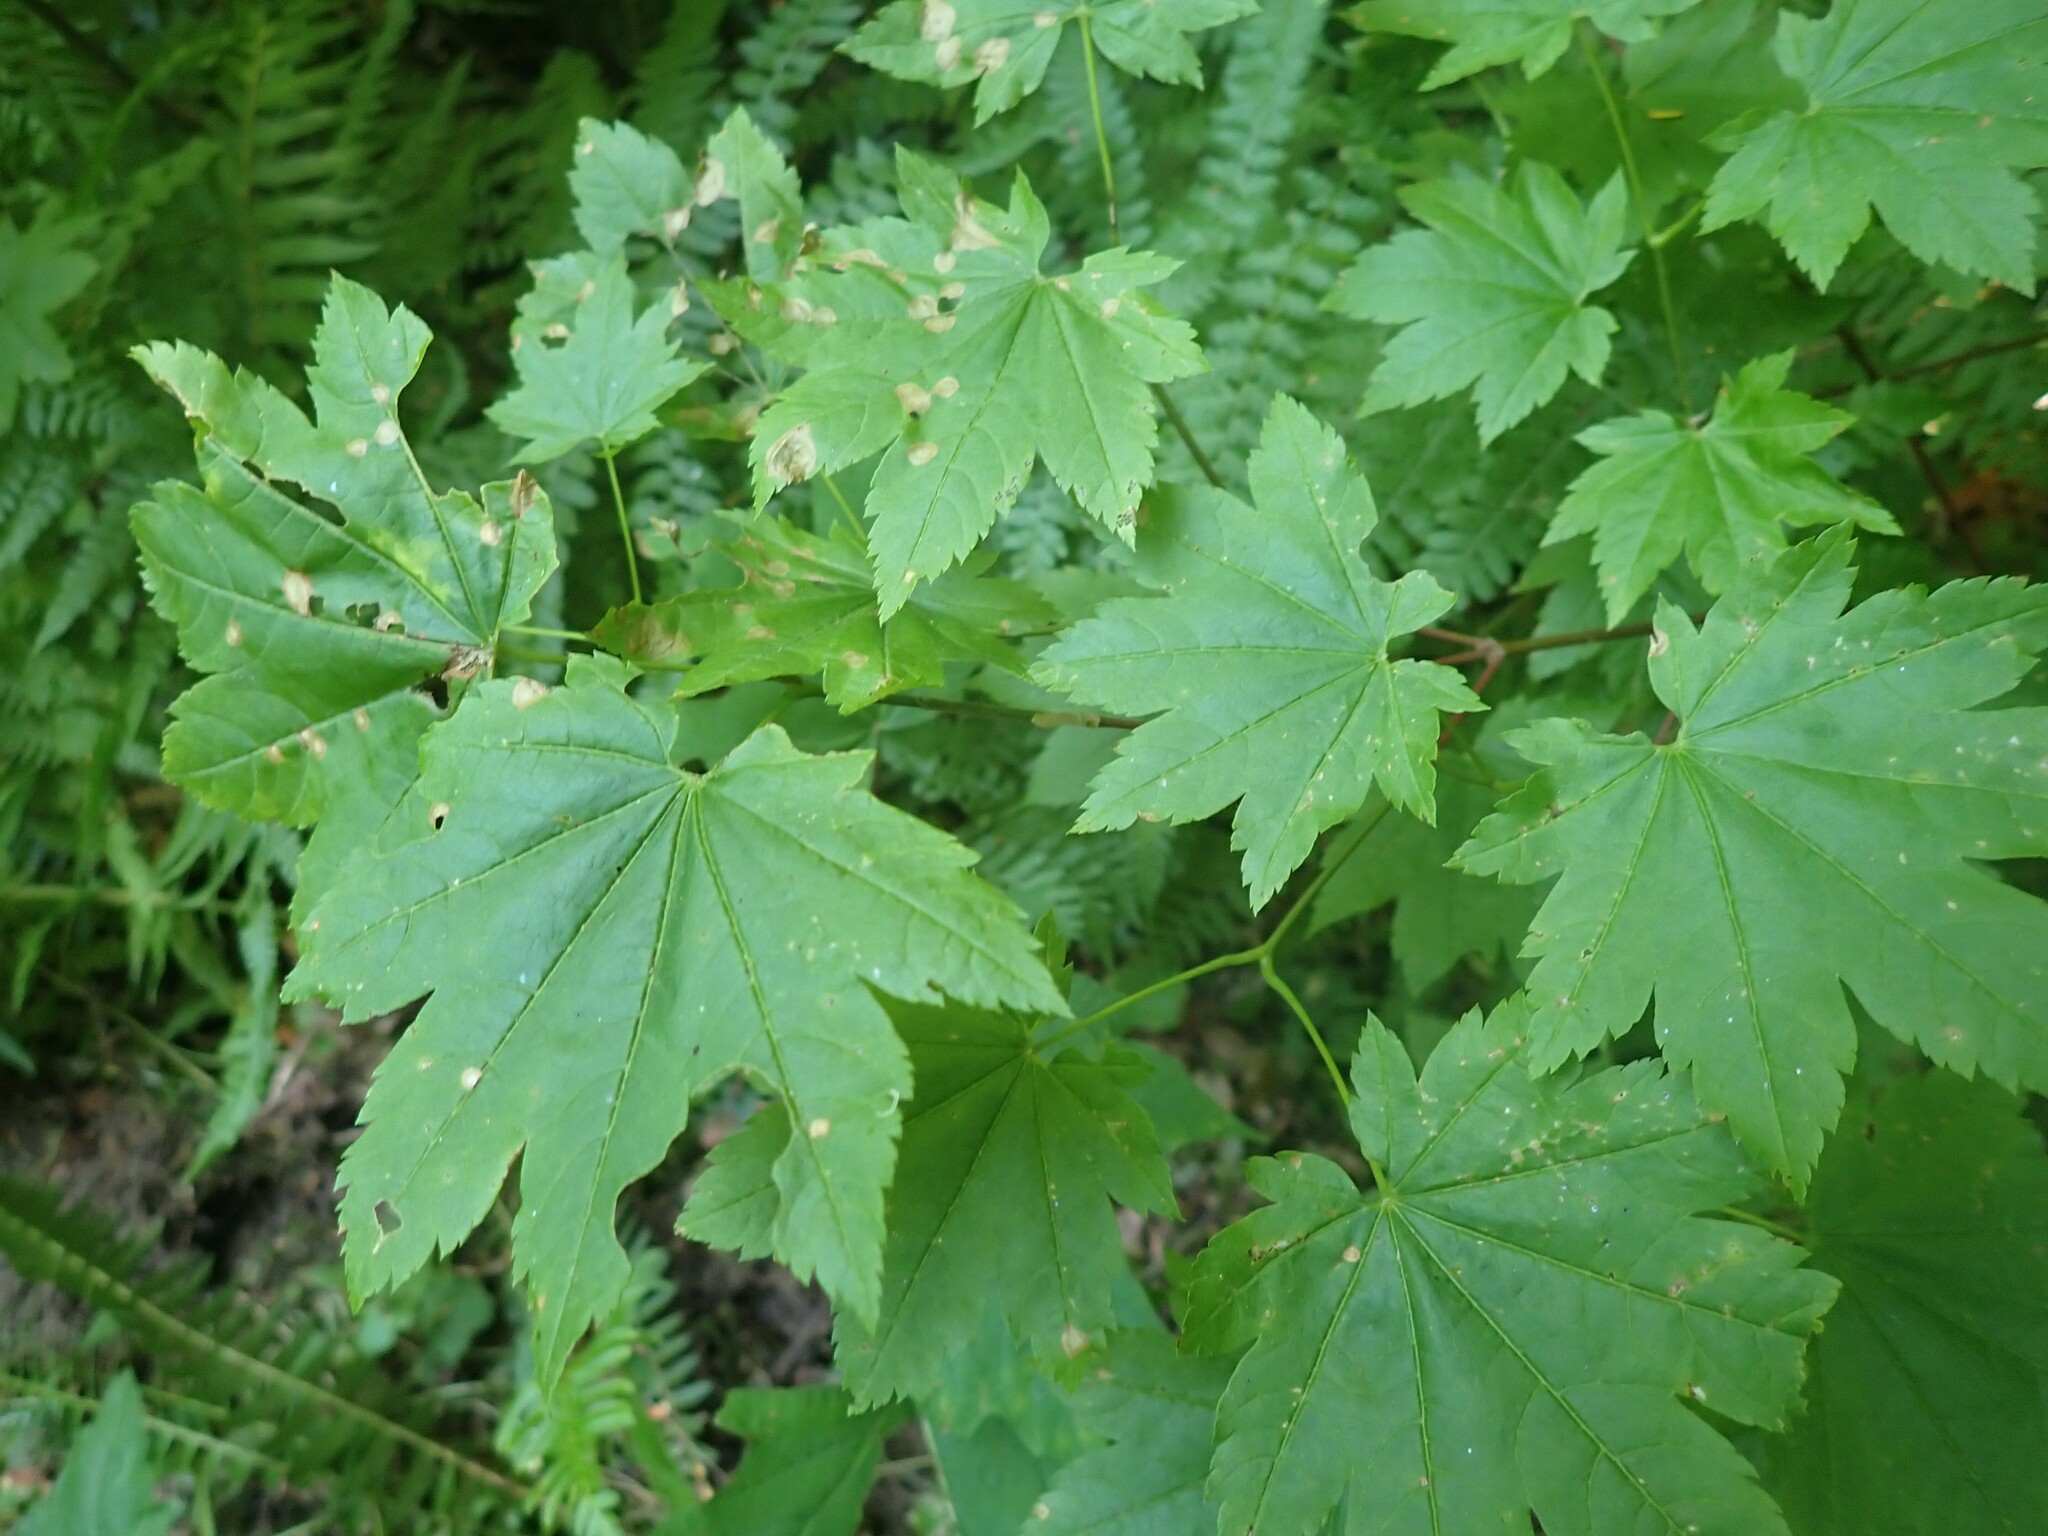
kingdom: Plantae
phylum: Tracheophyta
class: Magnoliopsida
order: Sapindales
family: Sapindaceae
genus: Acer
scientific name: Acer circinatum
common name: Vine maple
